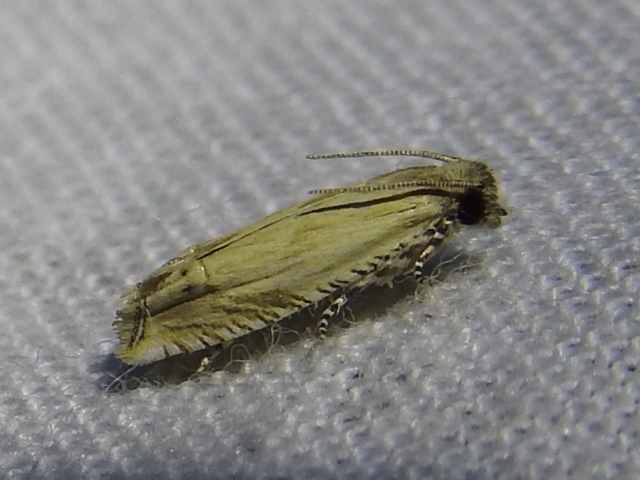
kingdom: Animalia
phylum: Arthropoda
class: Insecta
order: Lepidoptera
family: Tortricidae
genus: Eucosma
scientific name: Eucosma grindeliana
